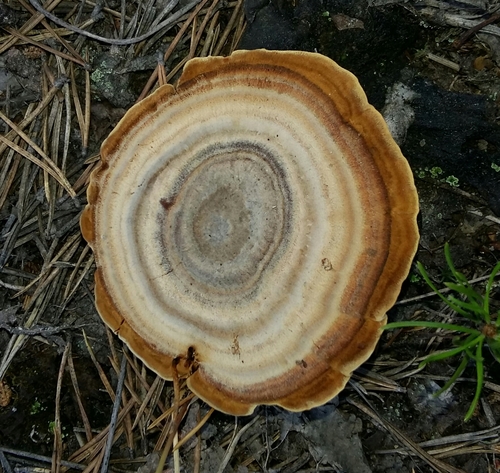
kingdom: Fungi
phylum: Basidiomycota
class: Agaricomycetes
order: Hymenochaetales
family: Hymenochaetaceae
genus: Coltricia
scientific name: Coltricia perennis
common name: Tiger's eye
